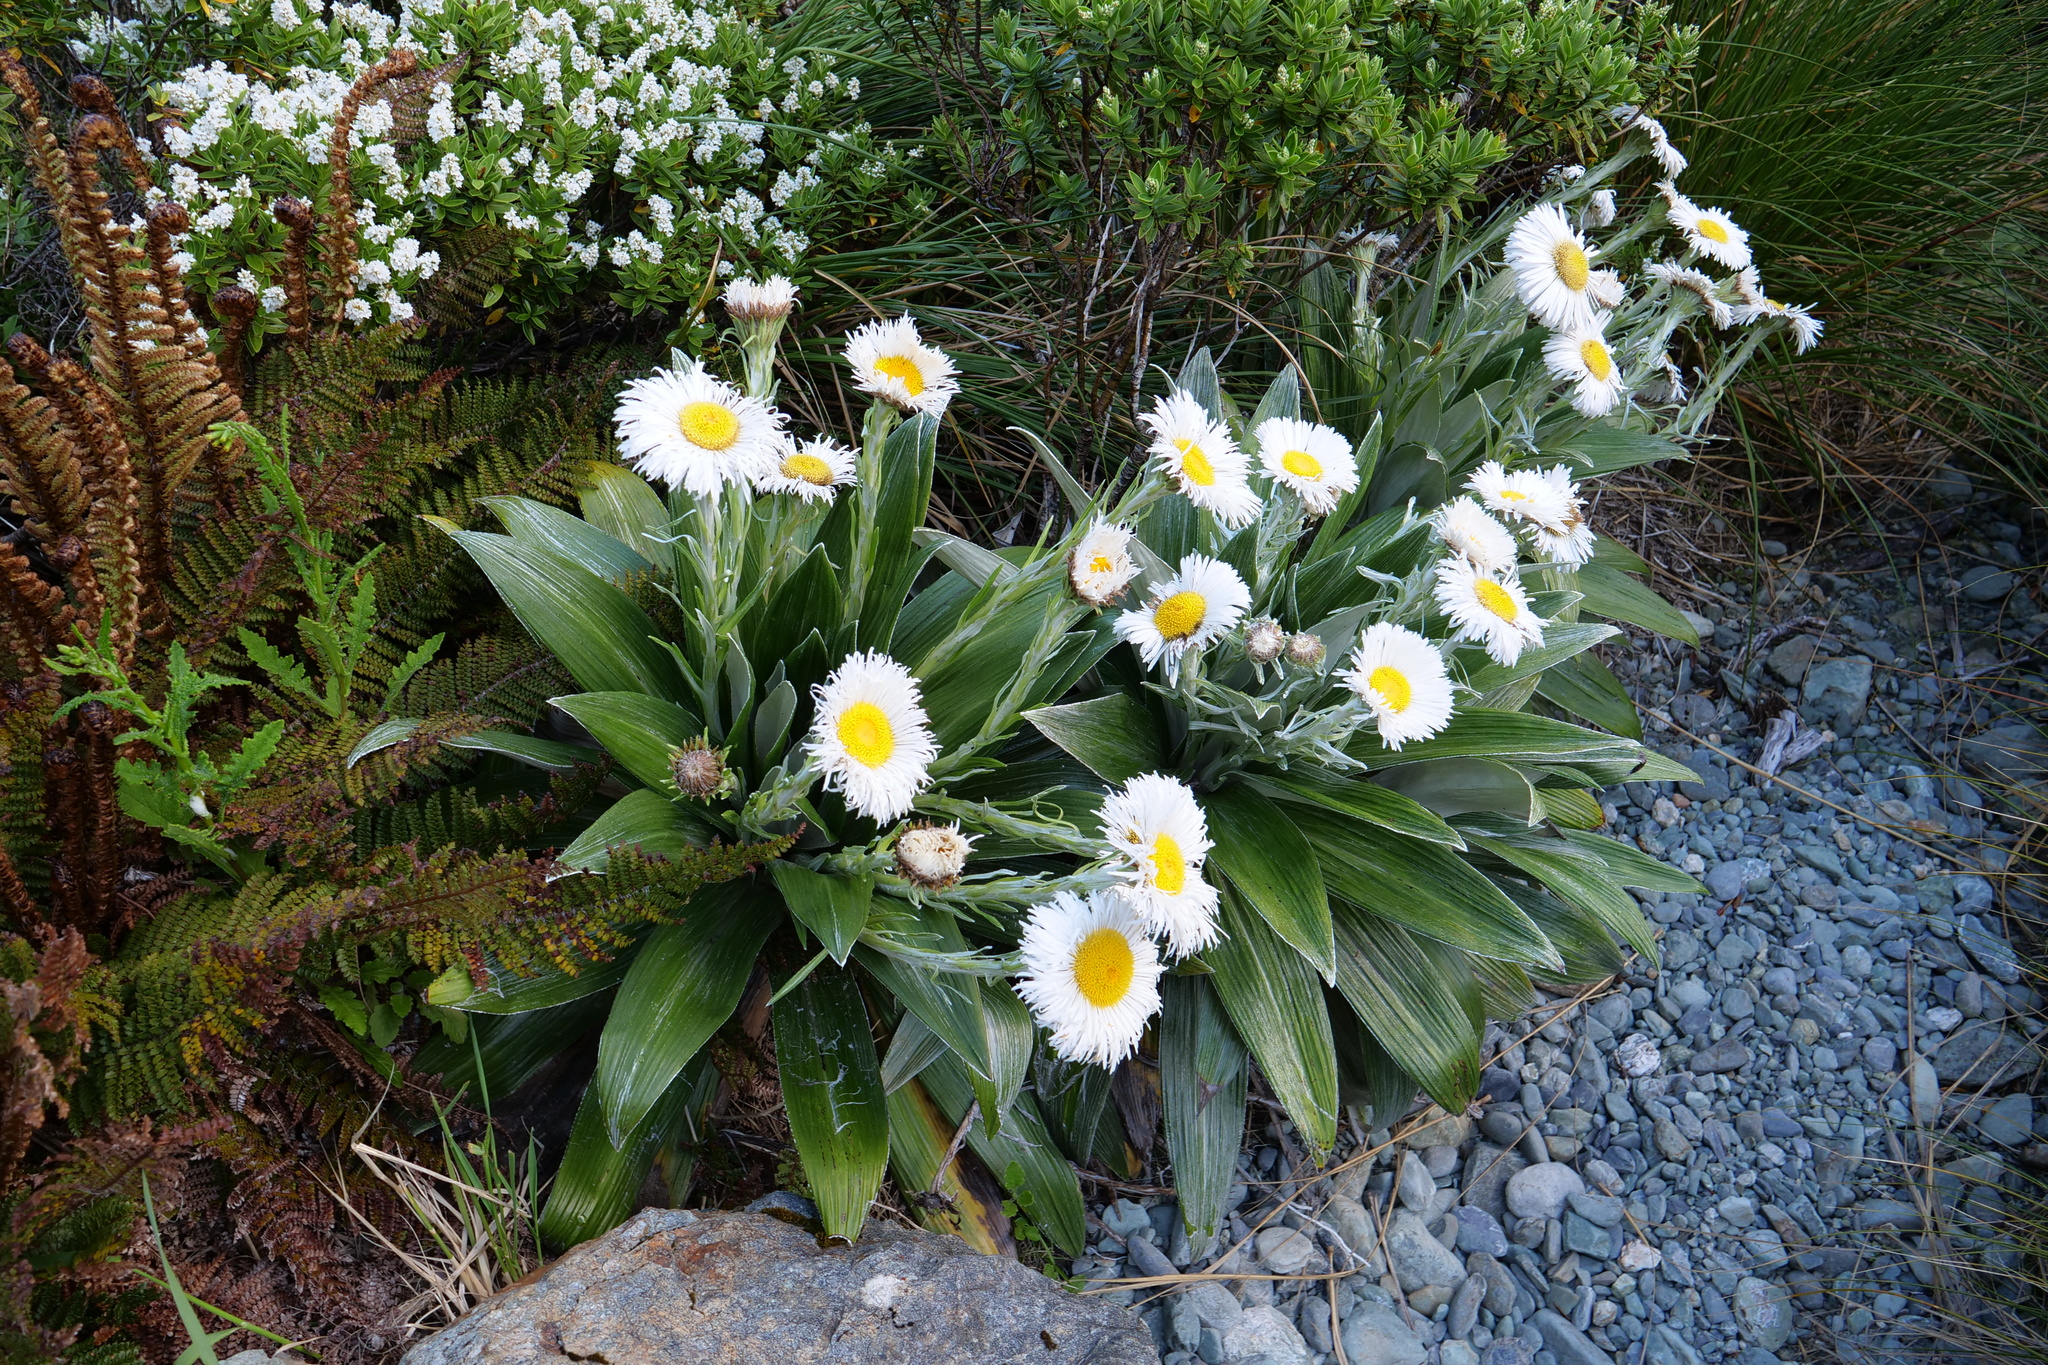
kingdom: Plantae
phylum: Tracheophyta
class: Magnoliopsida
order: Asterales
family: Asteraceae
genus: Celmisia
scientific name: Celmisia semicordata
